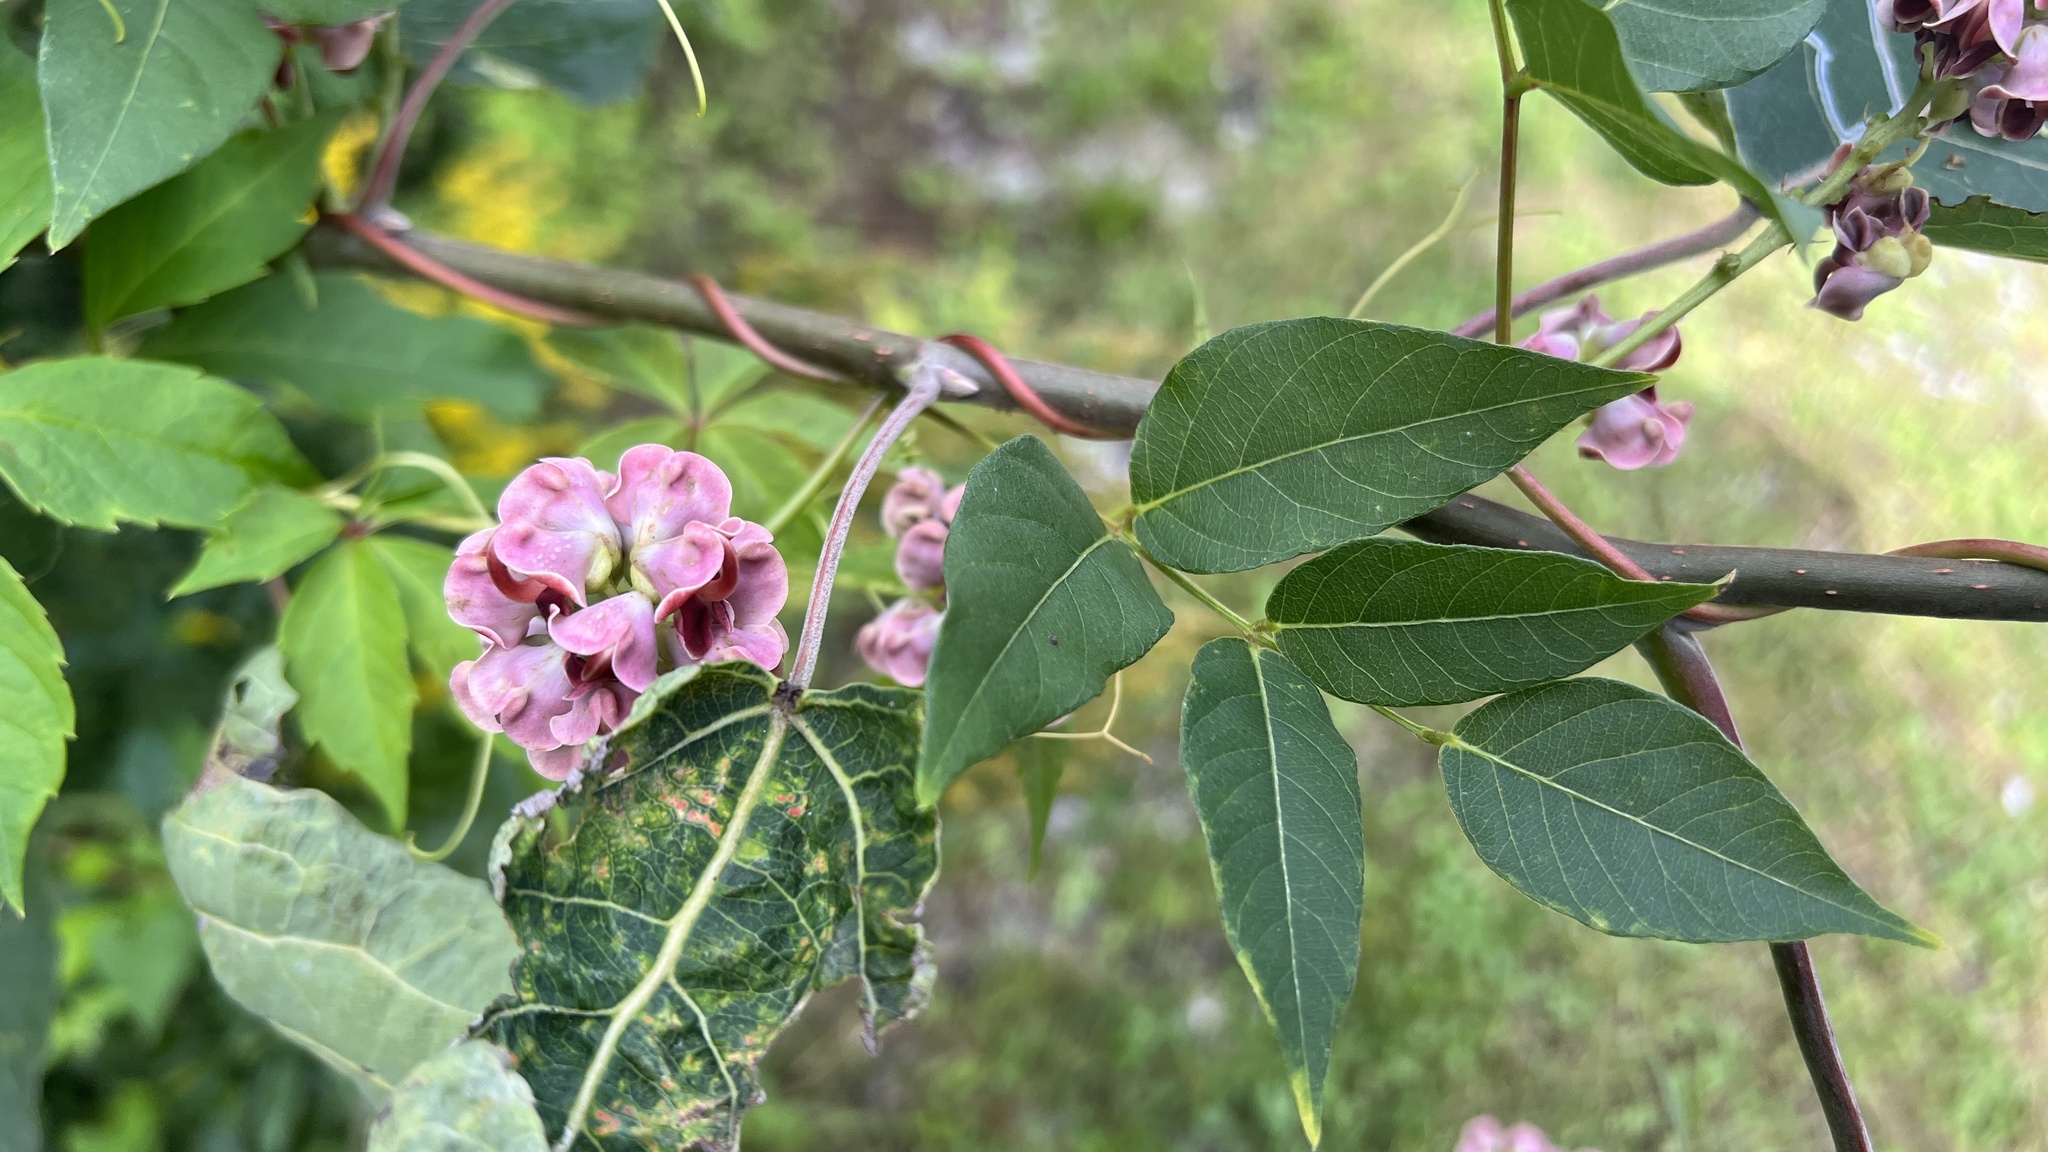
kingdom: Plantae
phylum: Tracheophyta
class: Magnoliopsida
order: Fabales
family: Fabaceae
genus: Apios
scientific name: Apios americana
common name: American potato-bean
